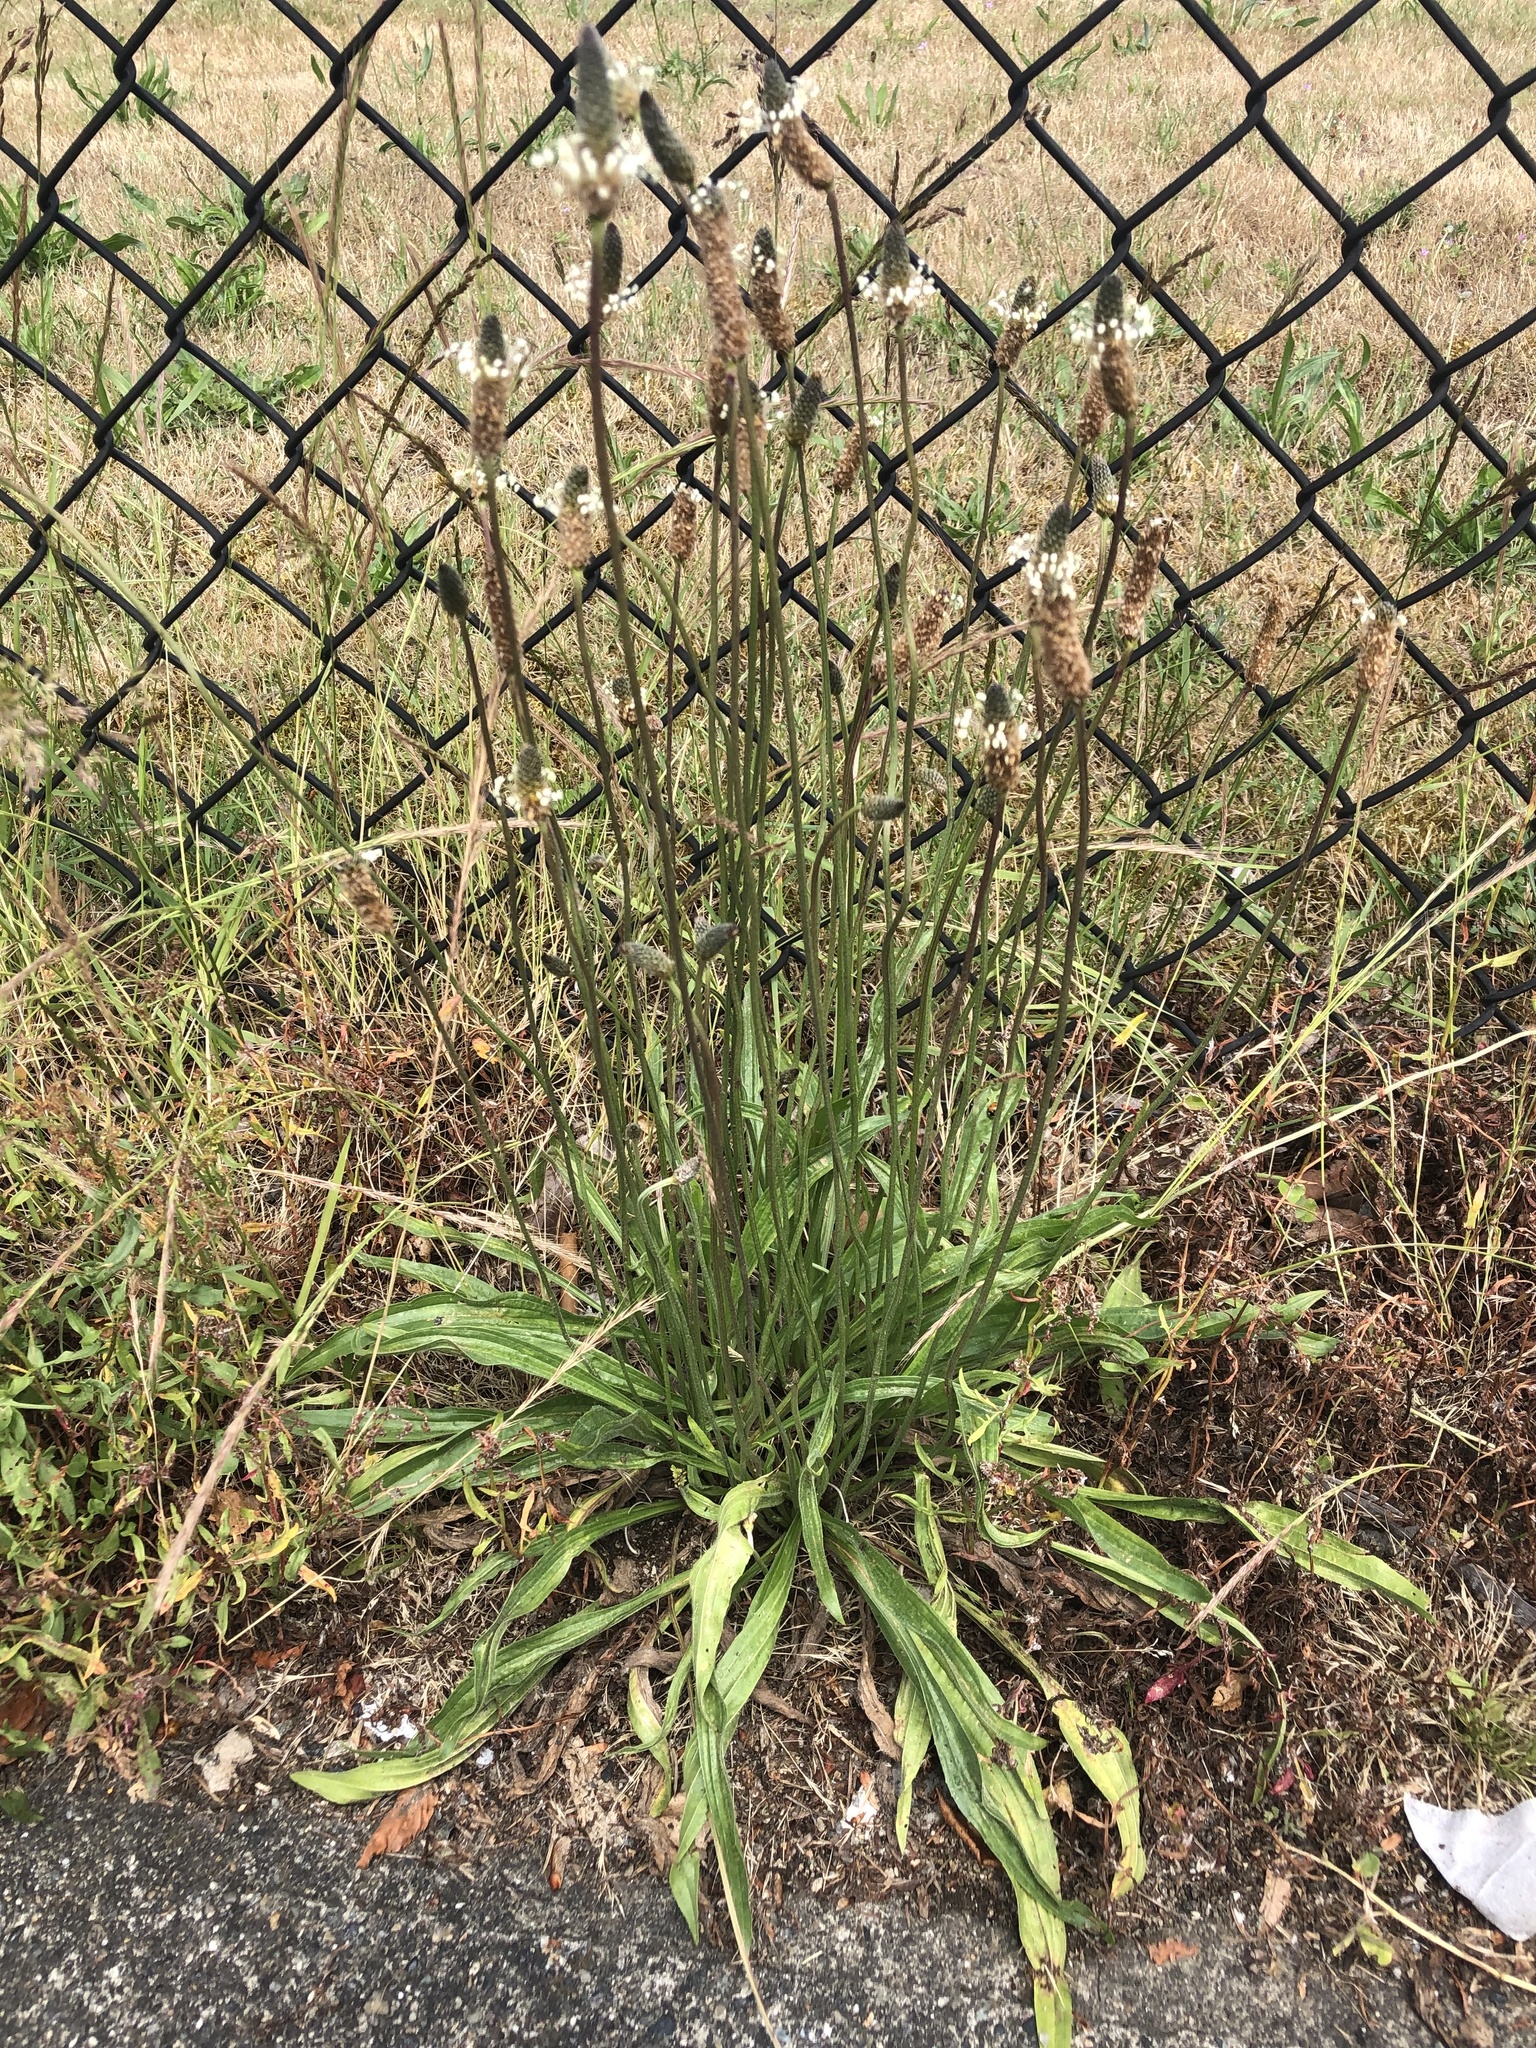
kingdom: Plantae
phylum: Tracheophyta
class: Magnoliopsida
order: Lamiales
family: Plantaginaceae
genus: Plantago
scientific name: Plantago lanceolata
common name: Ribwort plantain
